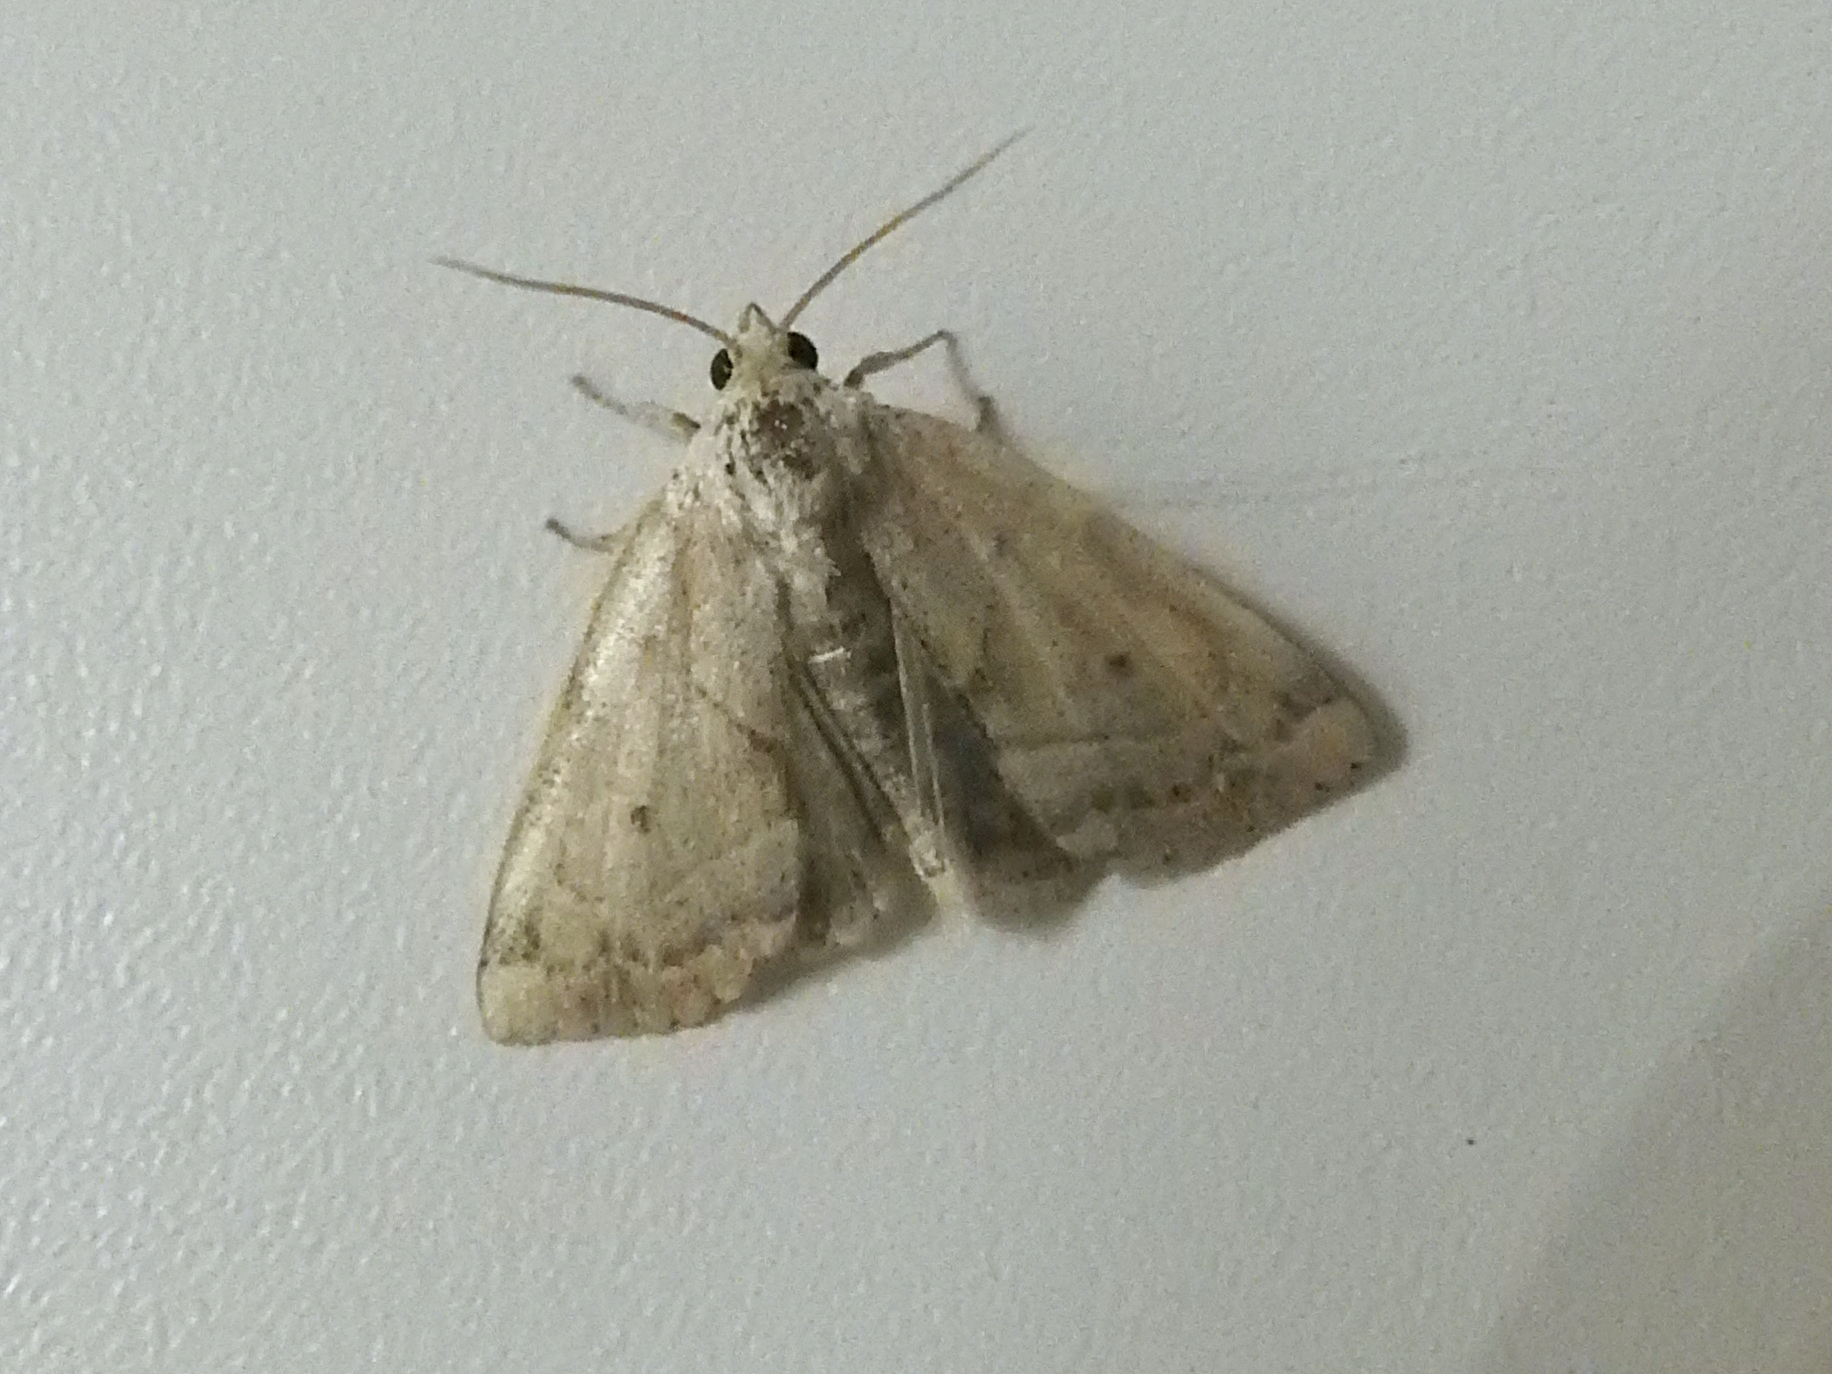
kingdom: Animalia
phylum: Arthropoda
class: Insecta
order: Lepidoptera
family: Noctuidae
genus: Cosmia
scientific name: Cosmia trapezina
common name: Dun-bar
